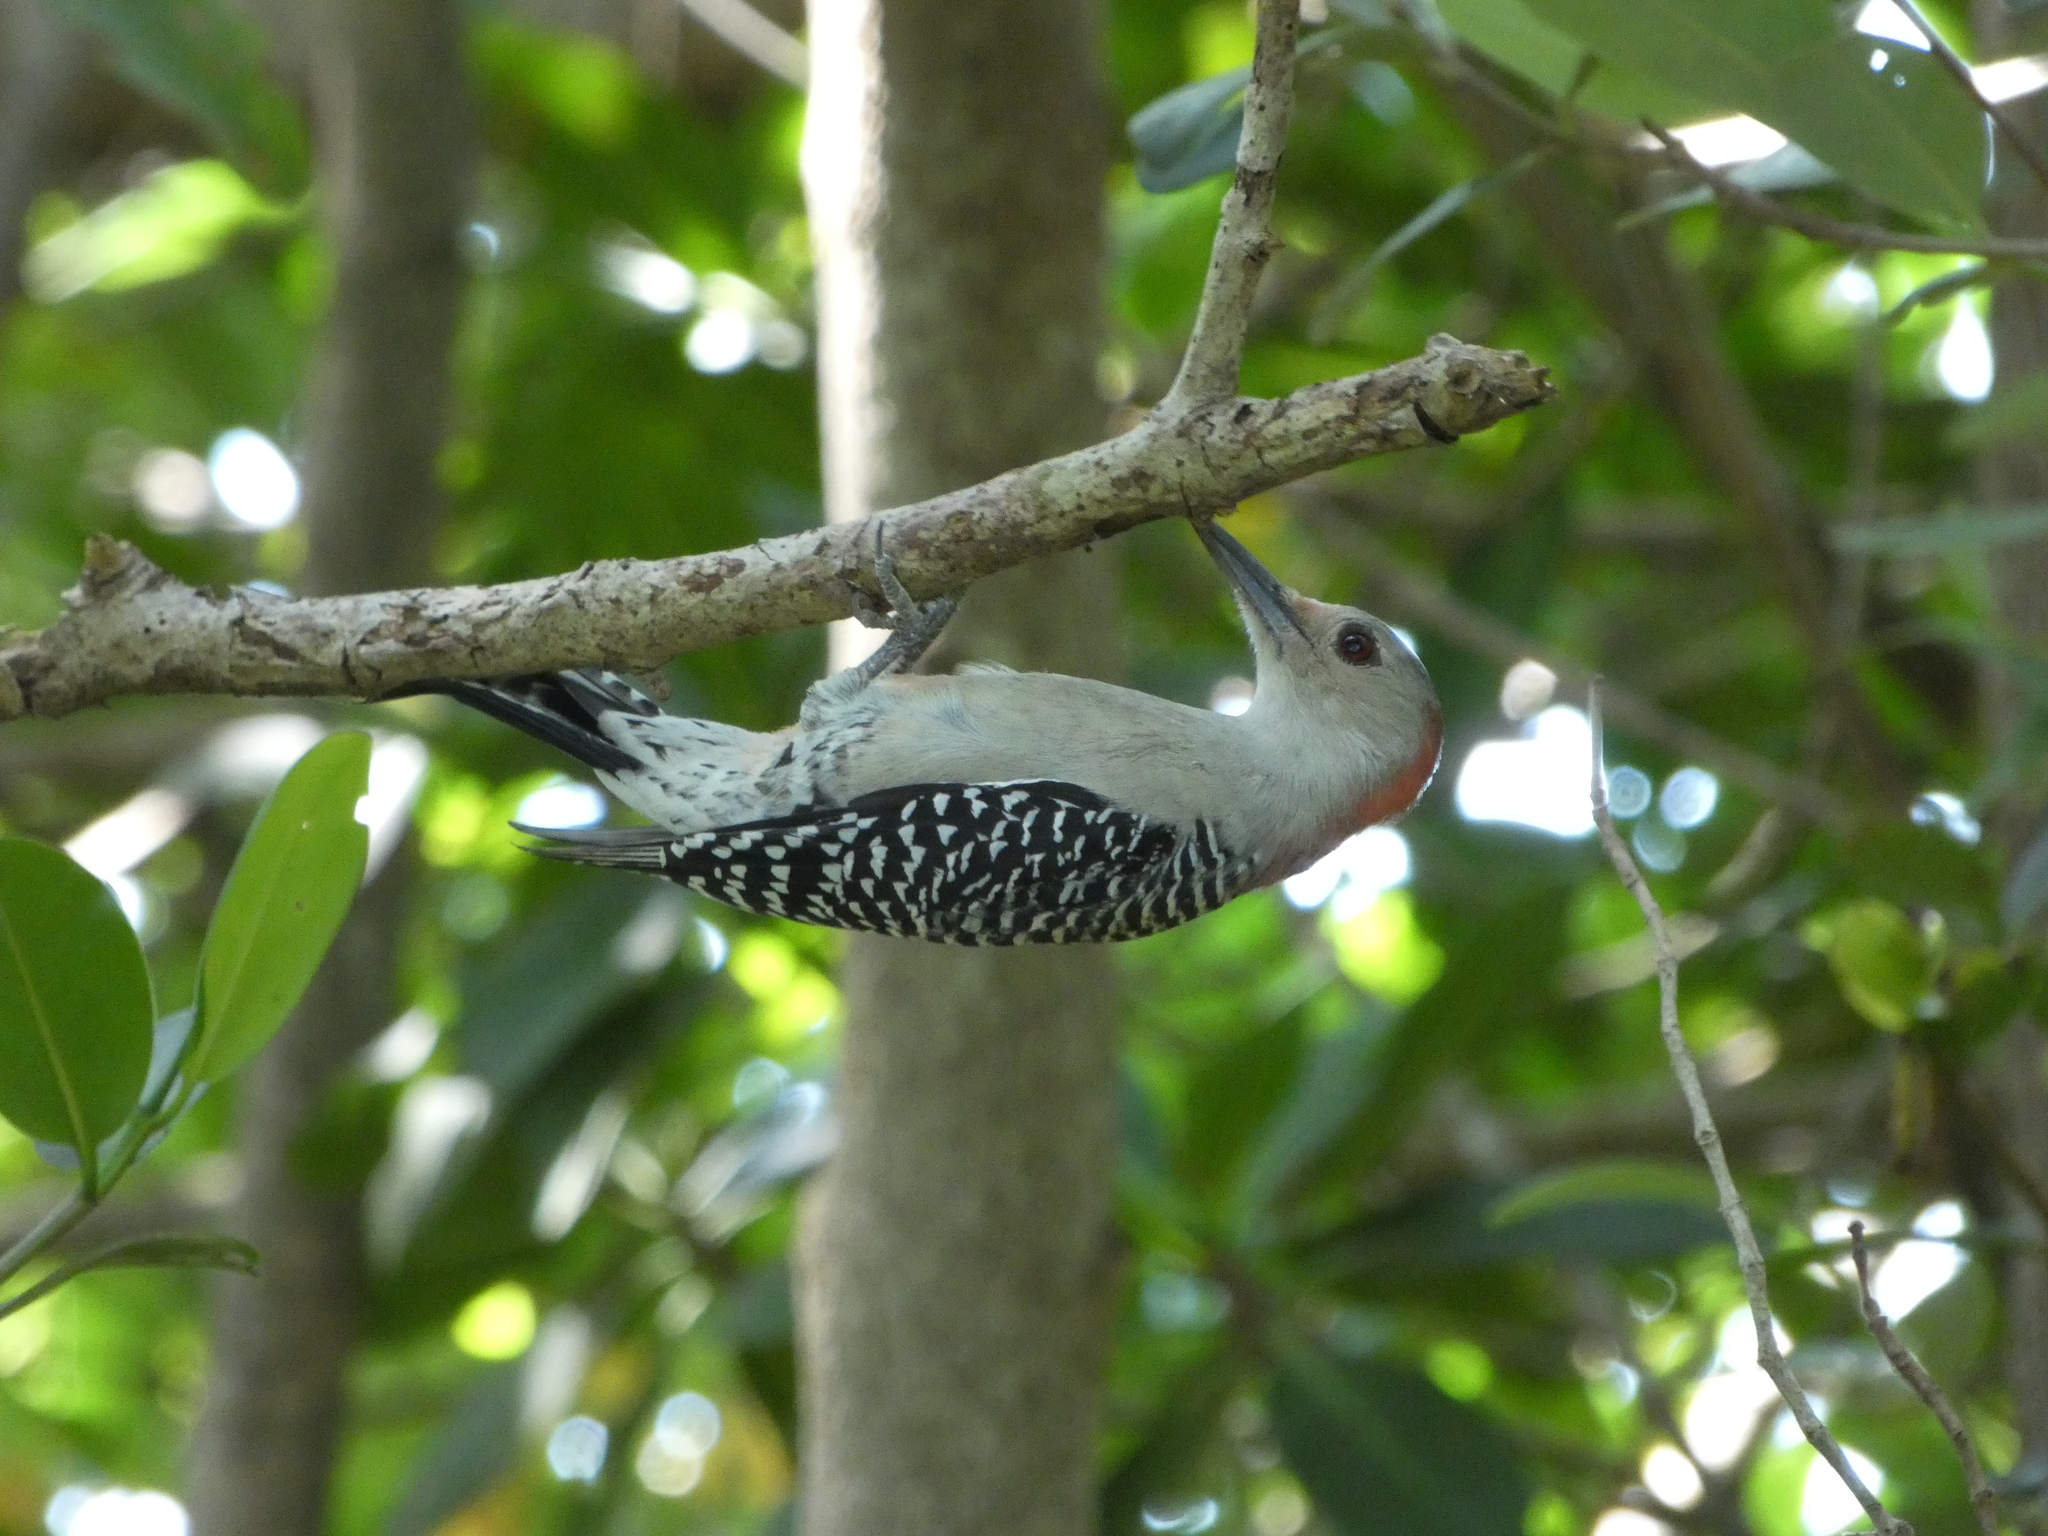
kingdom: Animalia
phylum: Chordata
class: Aves
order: Piciformes
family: Picidae
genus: Melanerpes
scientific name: Melanerpes carolinus
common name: Red-bellied woodpecker
